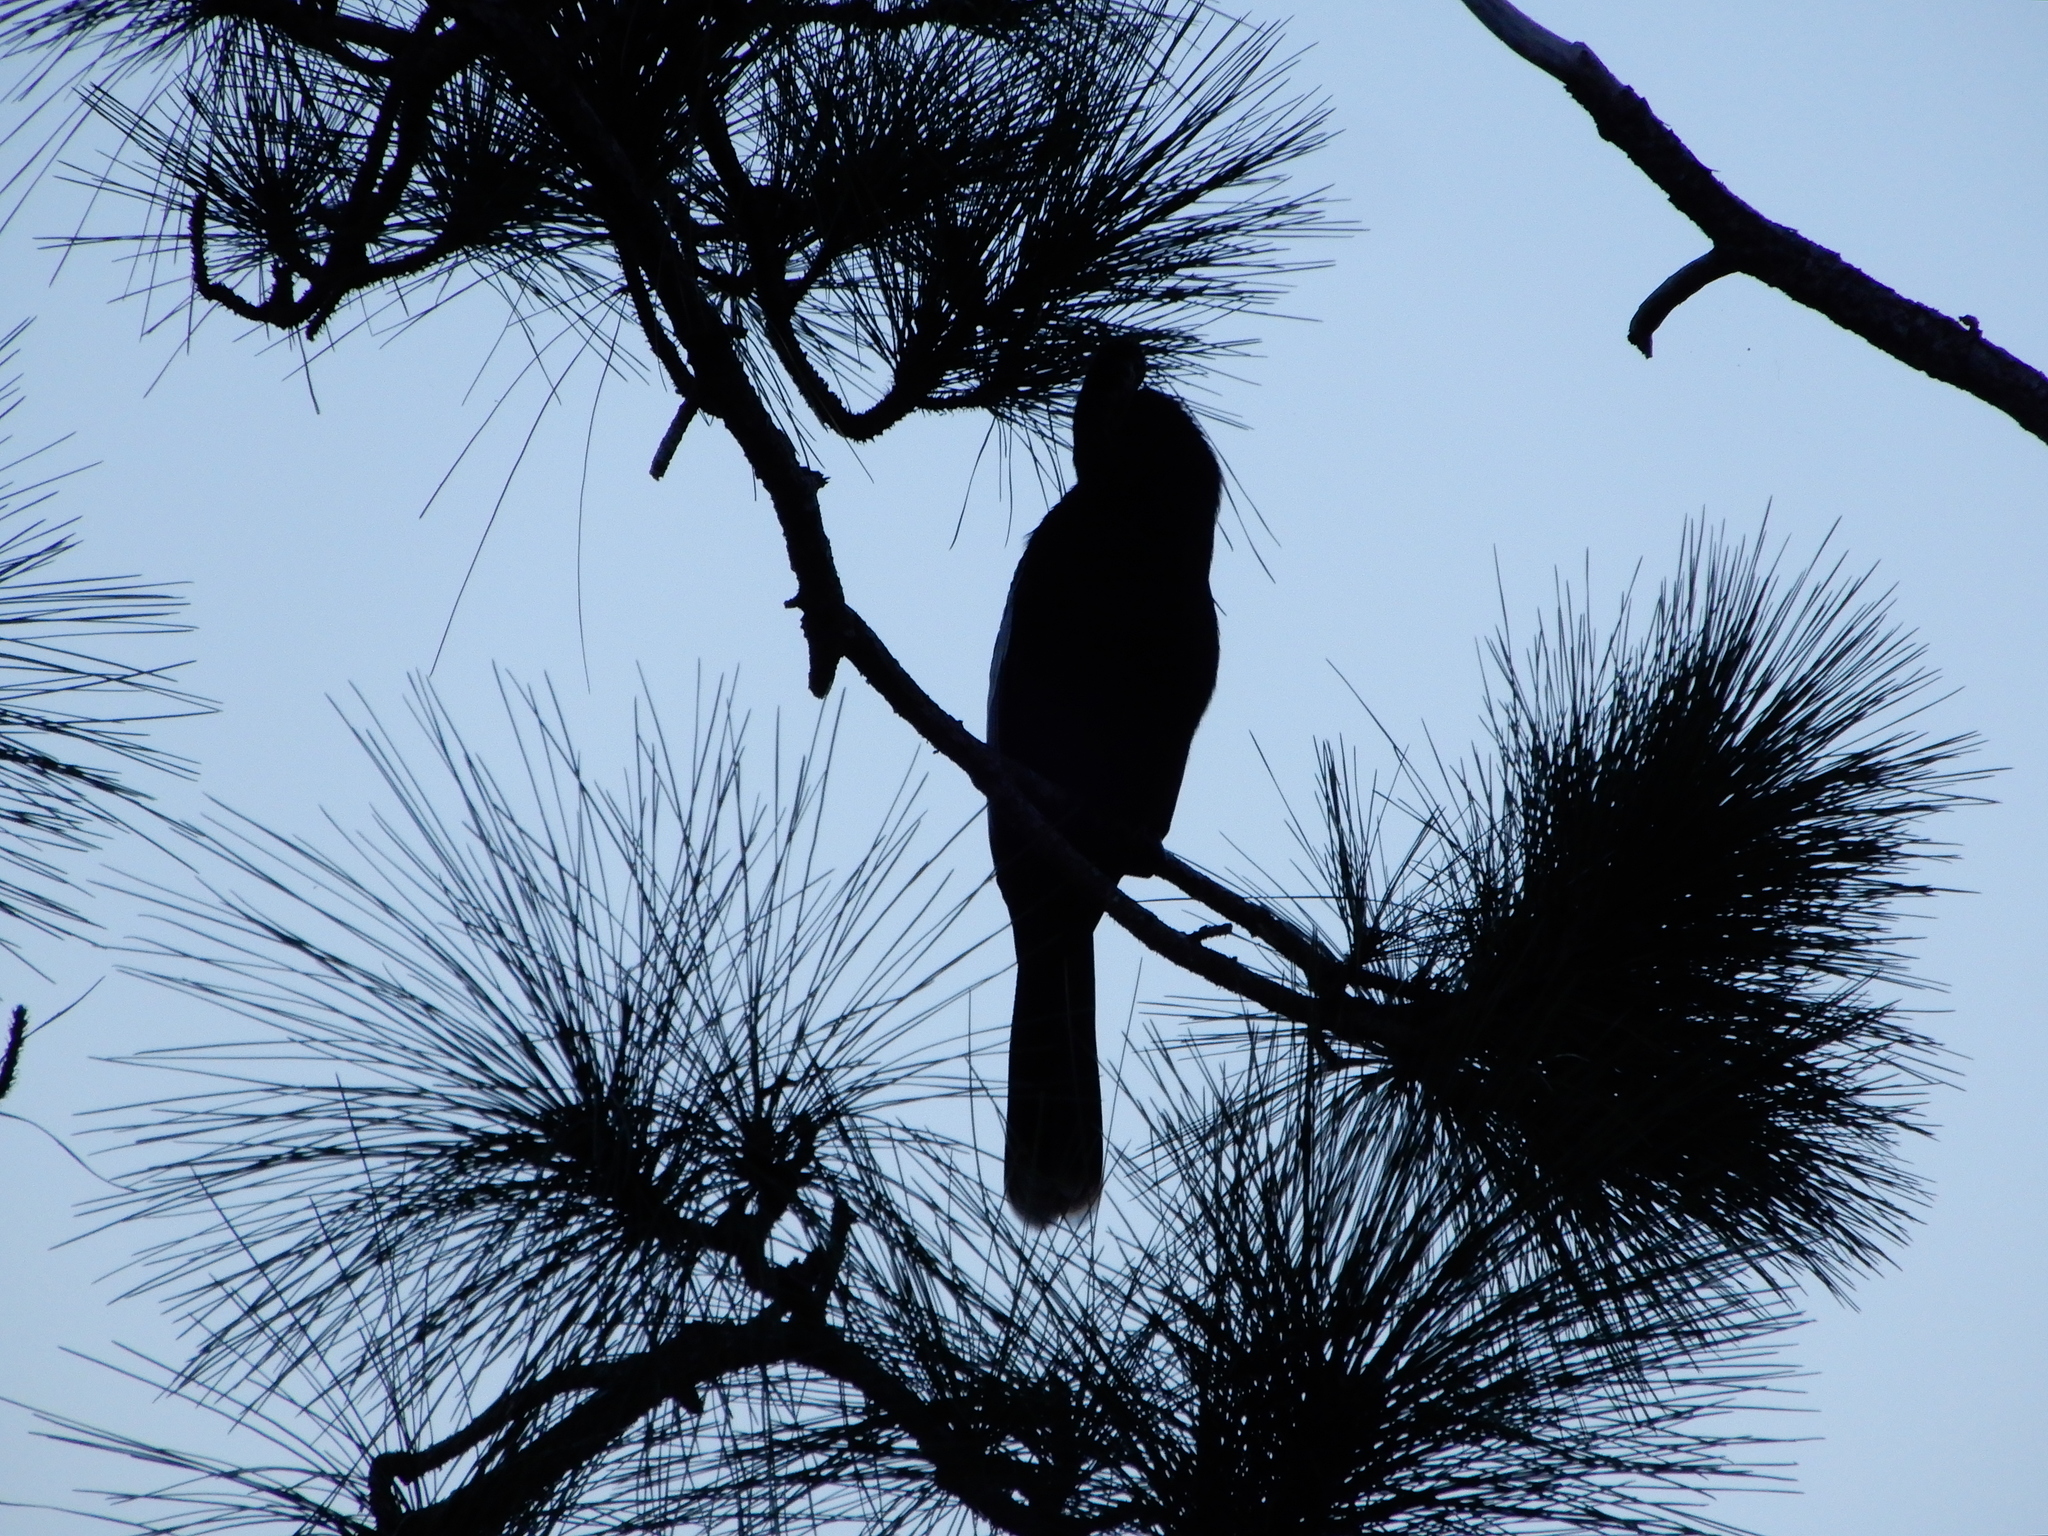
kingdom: Animalia
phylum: Chordata
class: Aves
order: Suliformes
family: Anhingidae
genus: Anhinga
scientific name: Anhinga anhinga
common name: Anhinga
